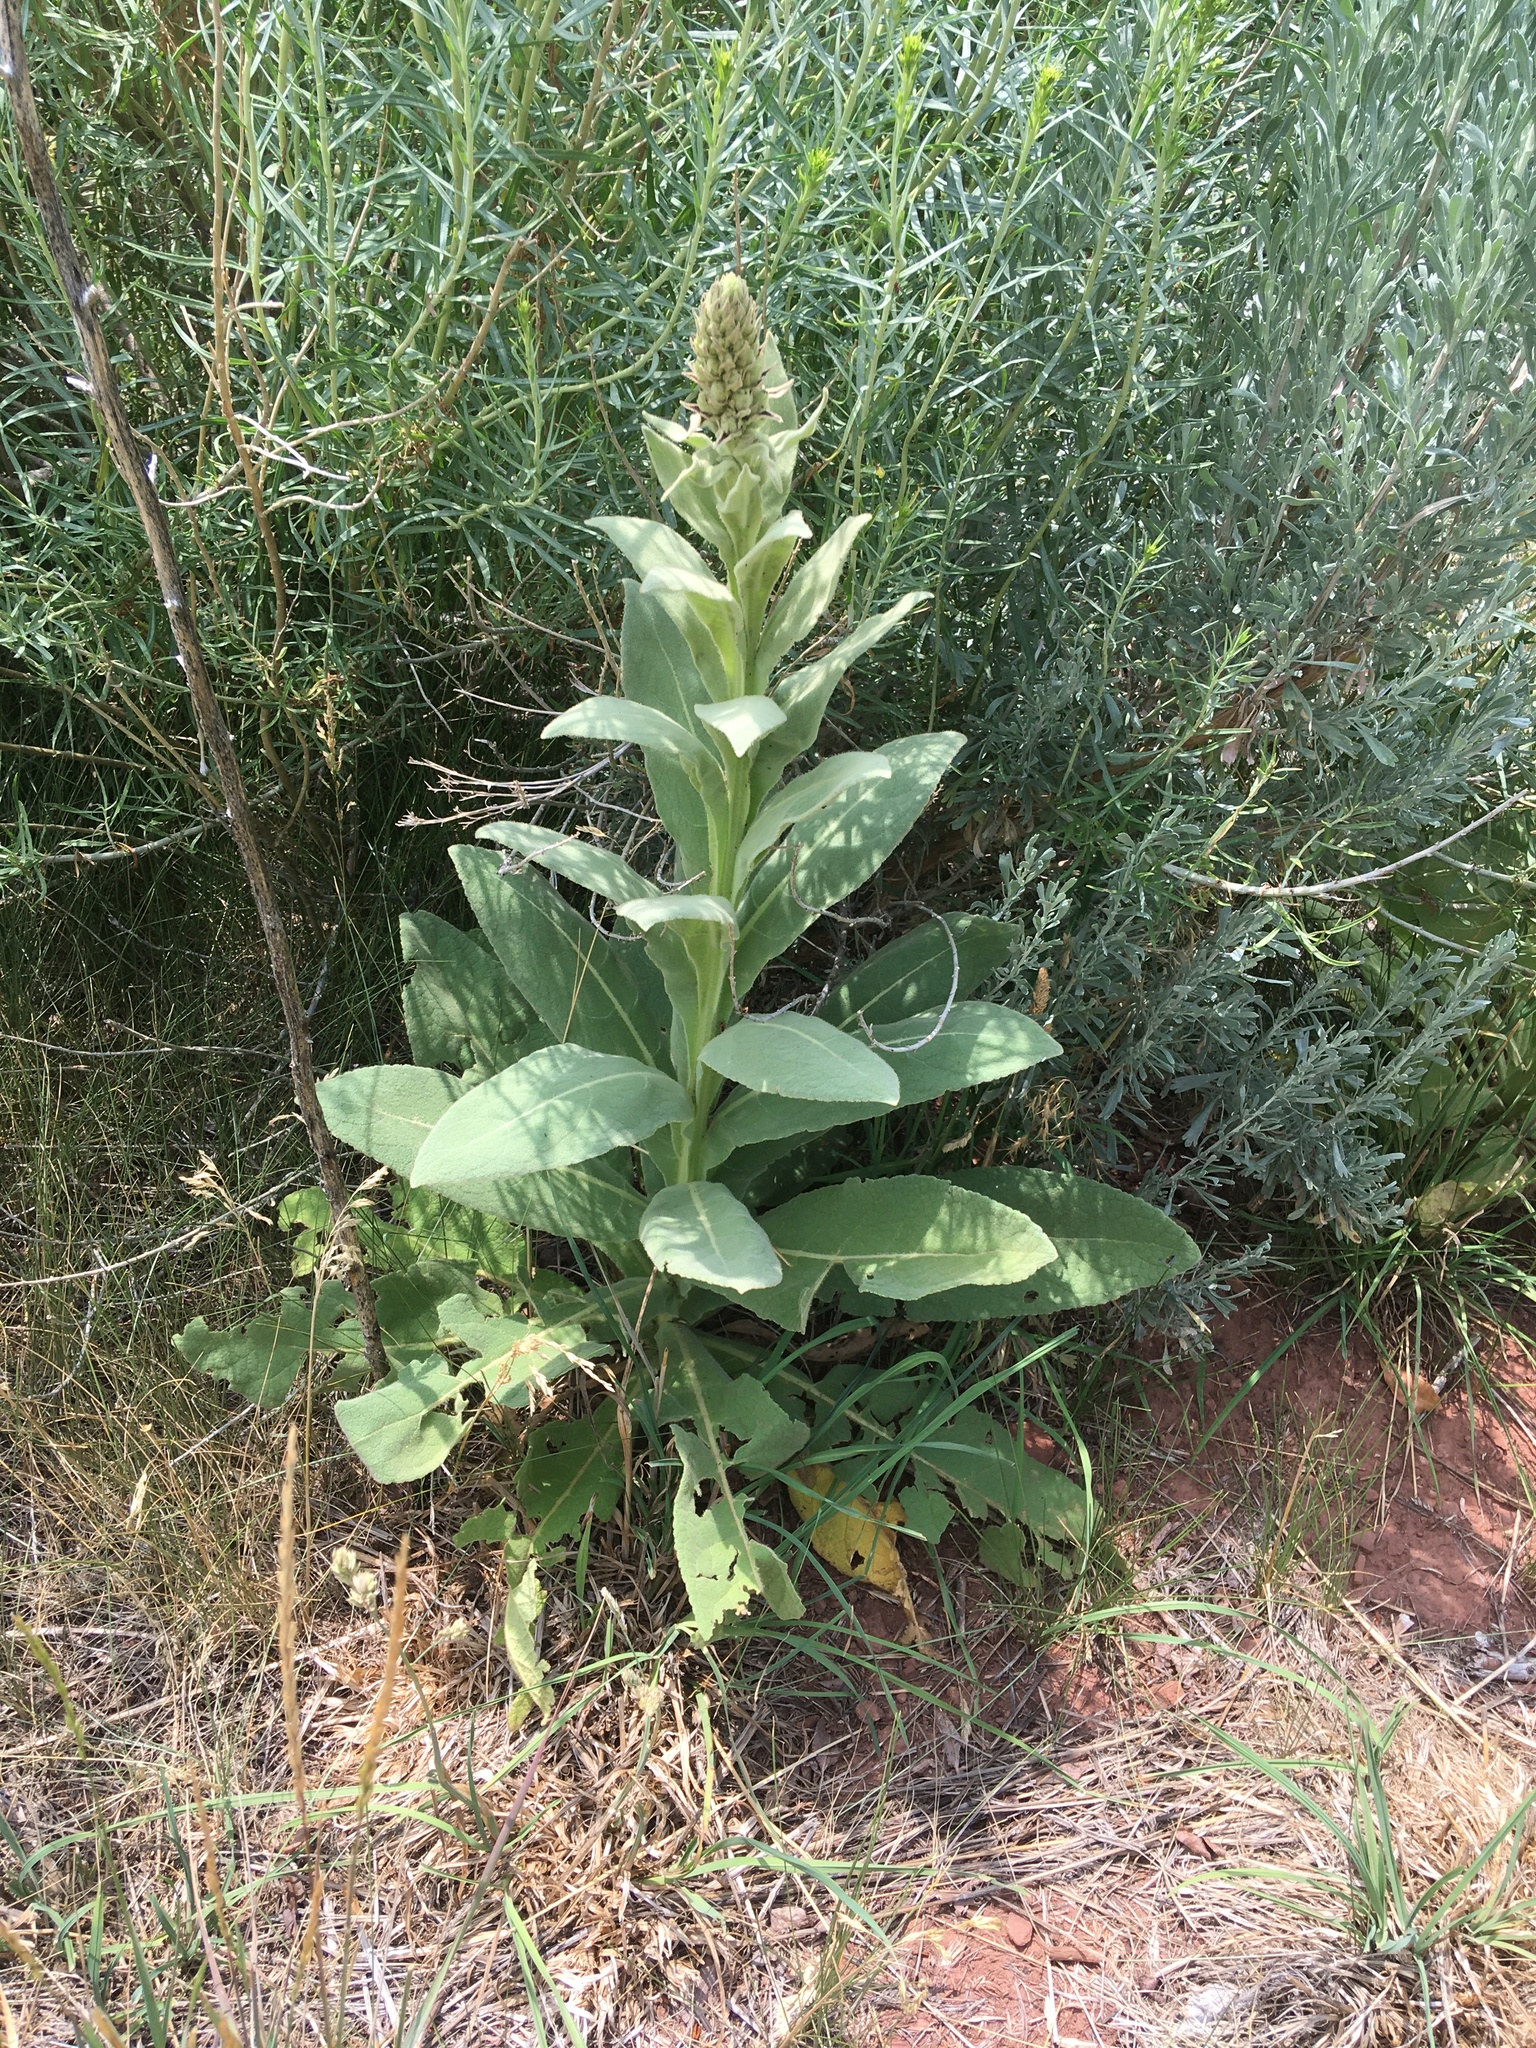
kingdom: Plantae
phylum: Tracheophyta
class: Magnoliopsida
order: Lamiales
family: Scrophulariaceae
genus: Verbascum
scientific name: Verbascum thapsus
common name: Common mullein
